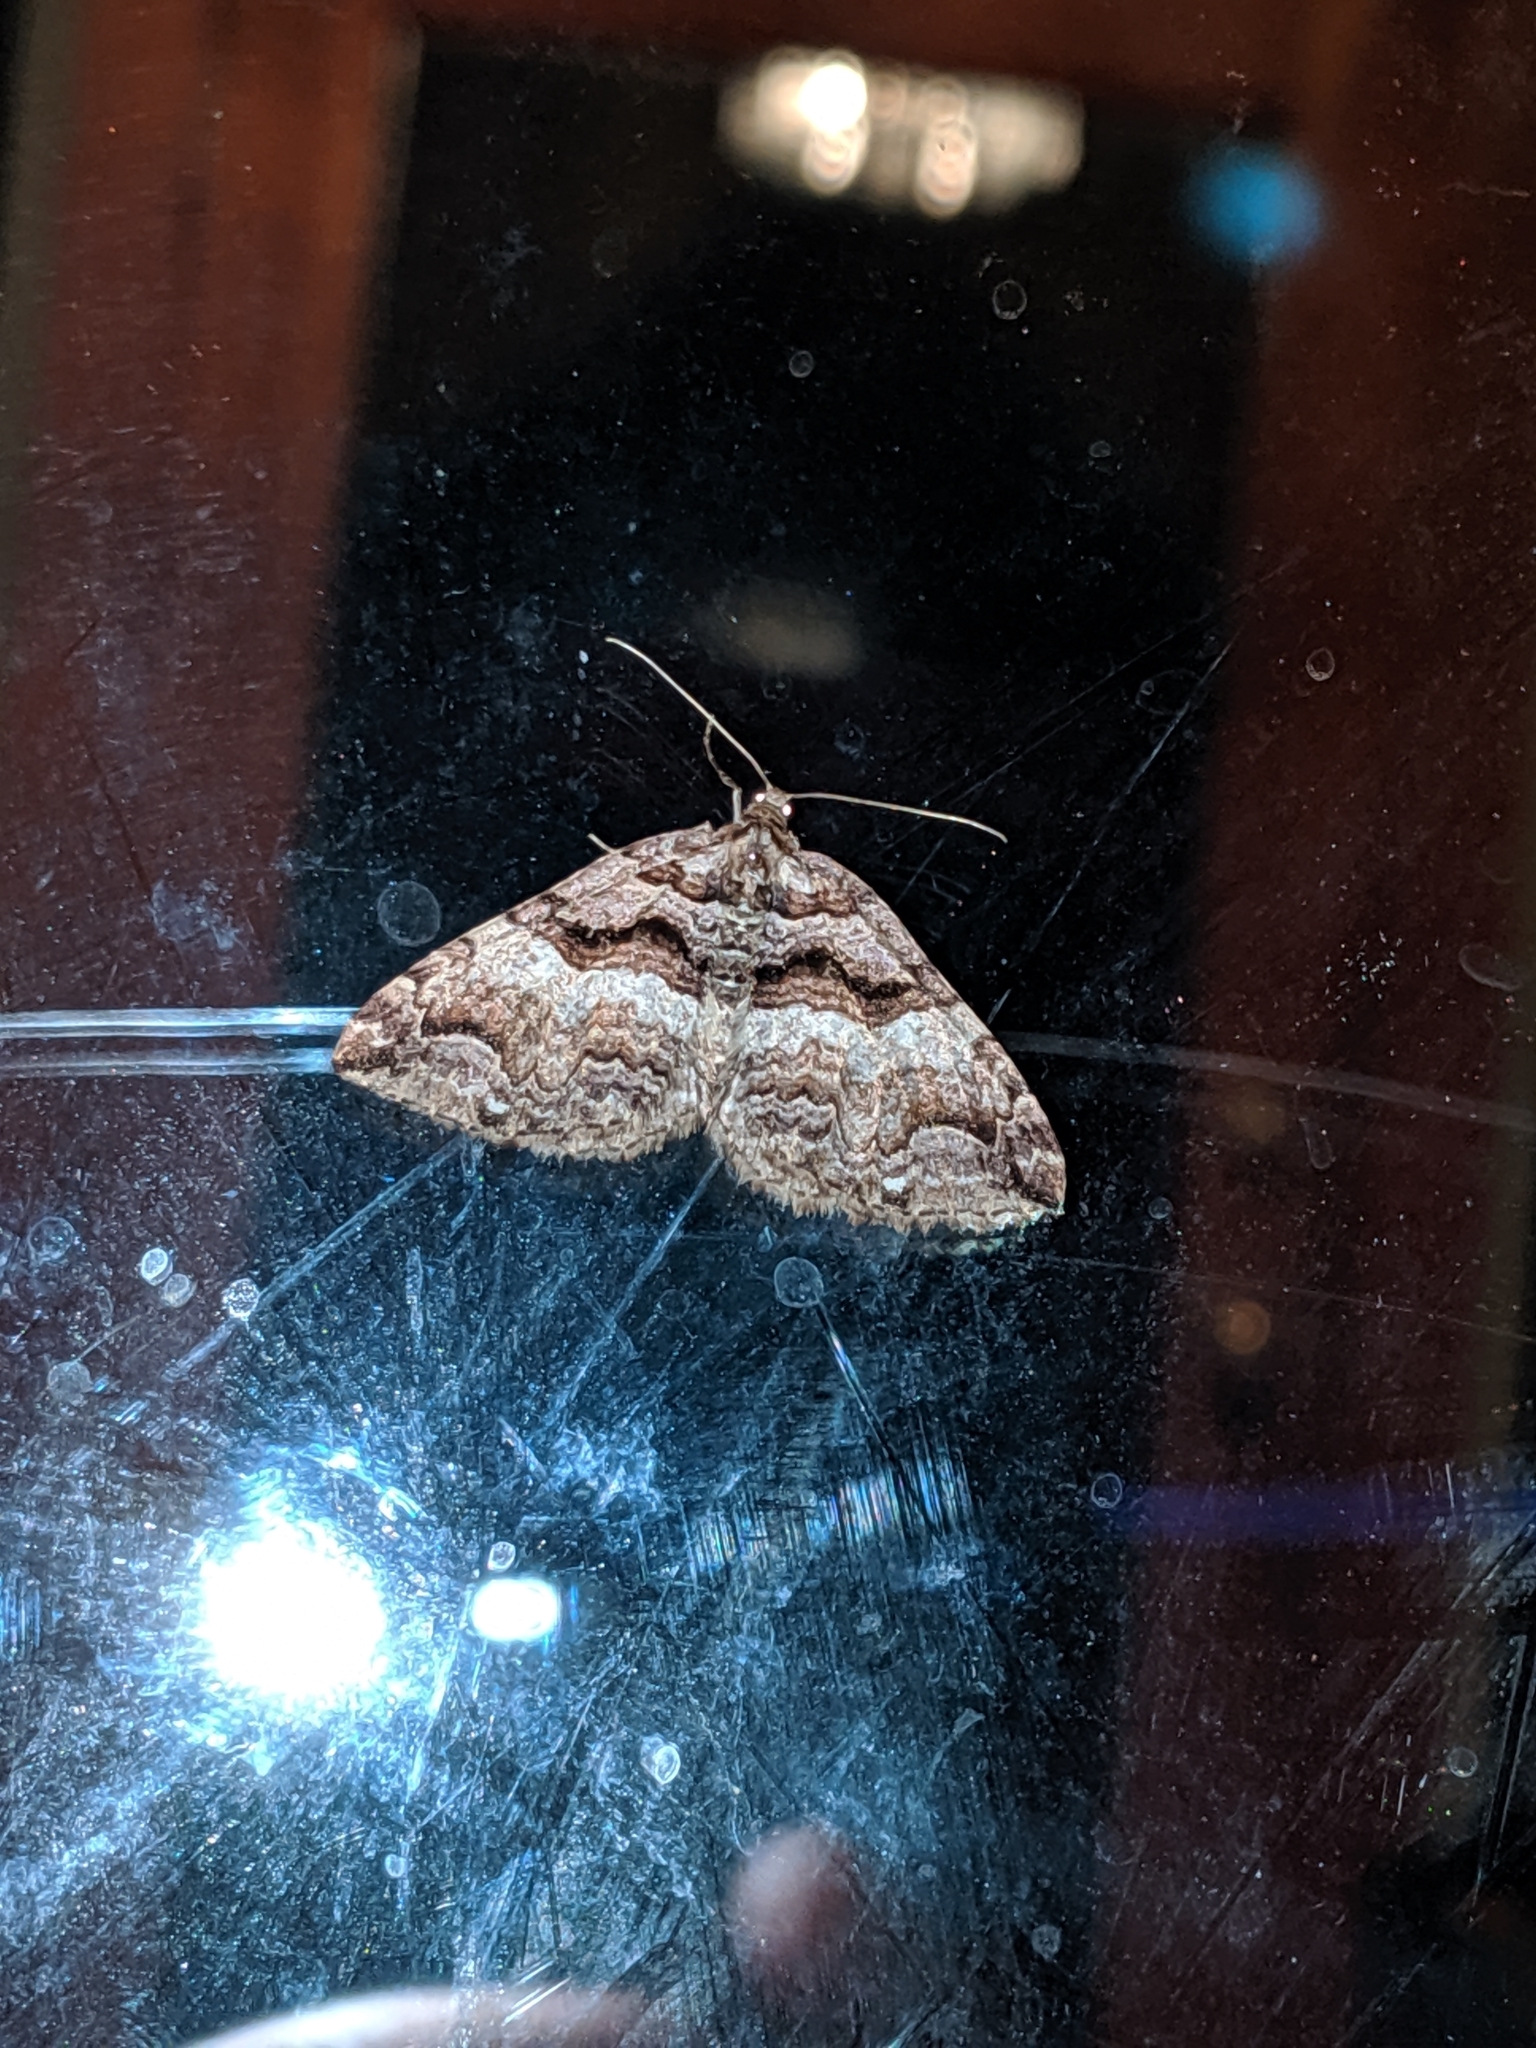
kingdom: Animalia
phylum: Arthropoda
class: Insecta
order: Lepidoptera
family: Geometridae
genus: Anticlea
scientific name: Anticlea vasiliata
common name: Variable carpet
